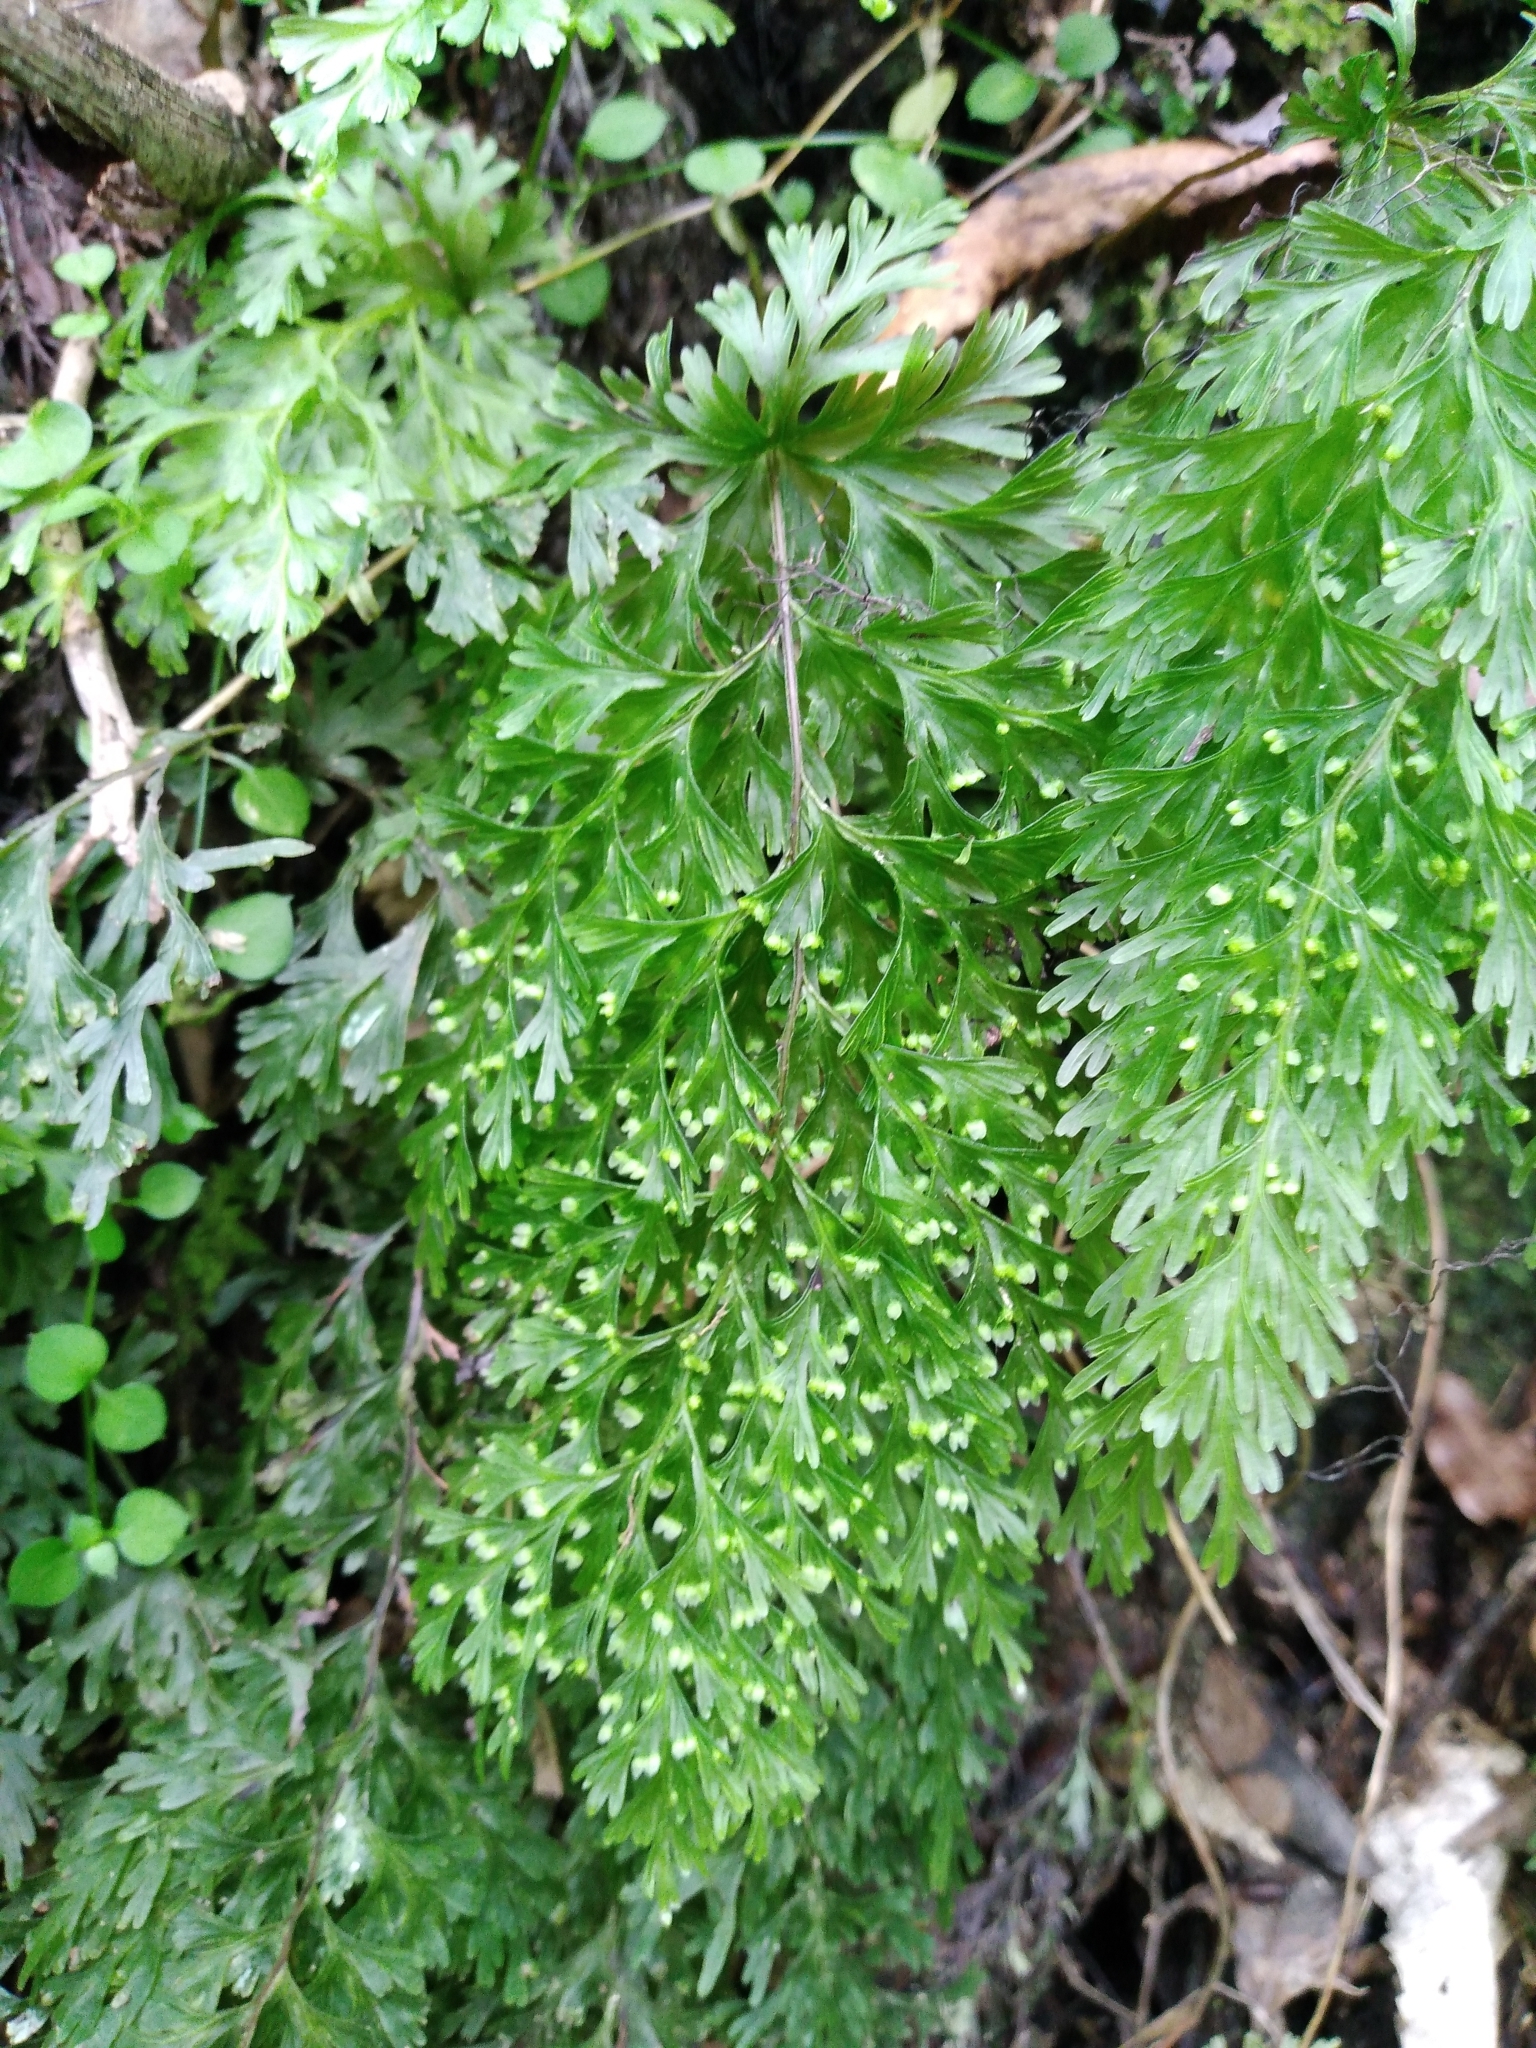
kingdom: Plantae
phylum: Tracheophyta
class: Polypodiopsida
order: Hymenophyllales
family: Hymenophyllaceae
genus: Hymenophyllum
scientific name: Hymenophyllum demissum
